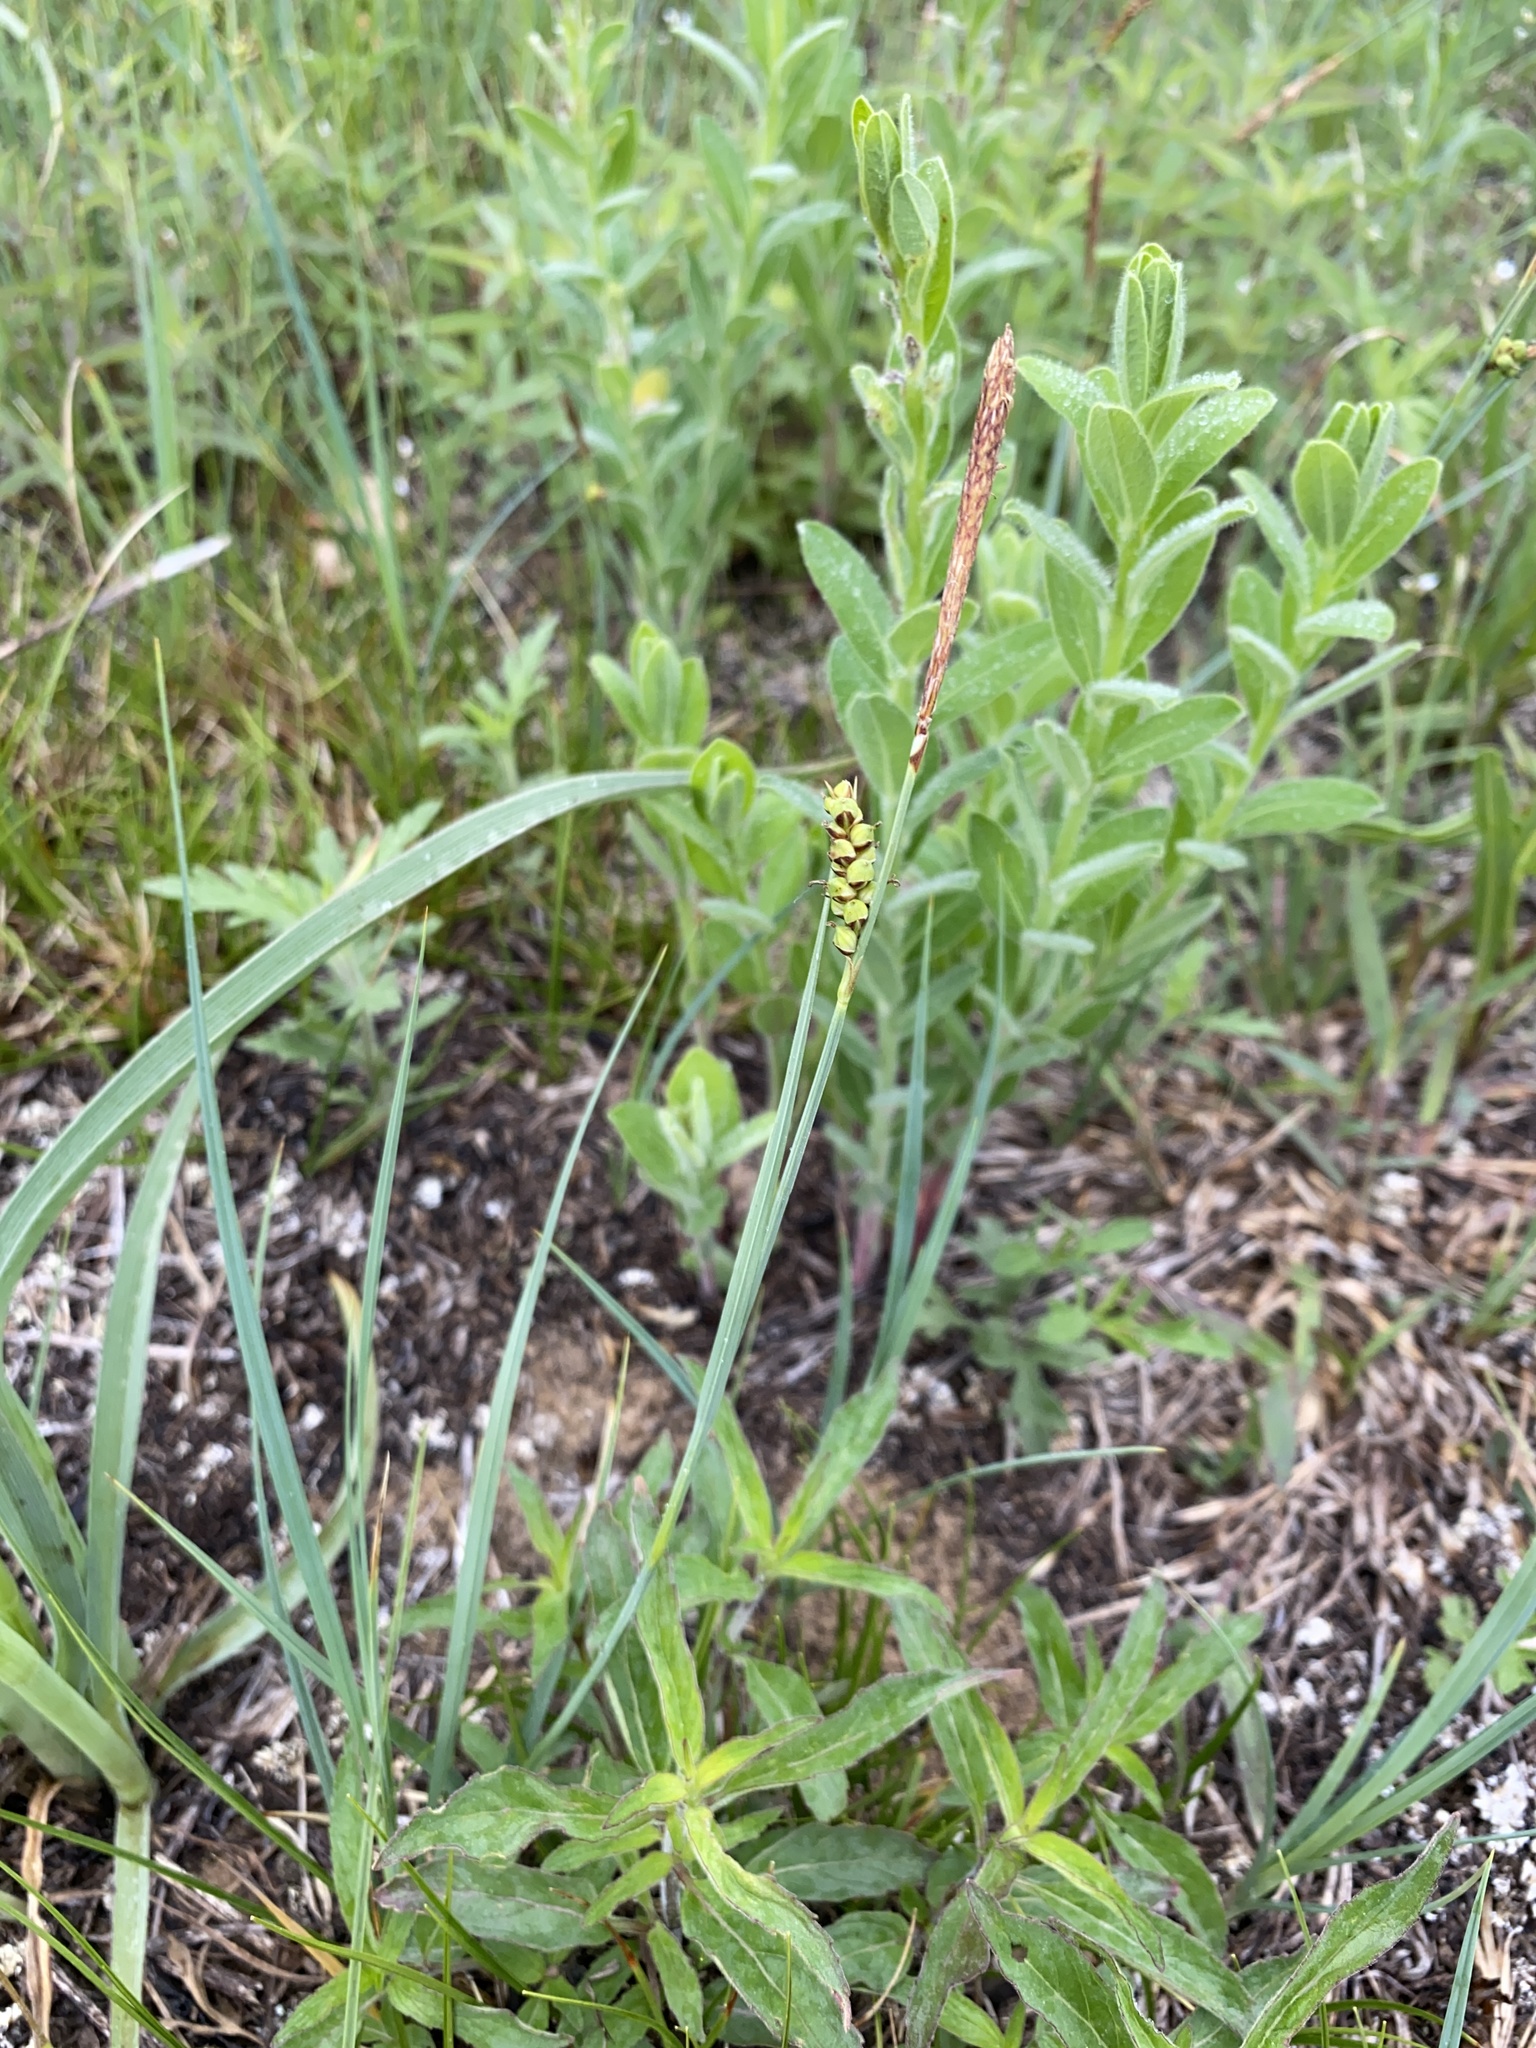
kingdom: Plantae
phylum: Tracheophyta
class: Liliopsida
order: Poales
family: Cyperaceae
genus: Carex
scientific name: Carex meadii
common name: Mead's sedge
